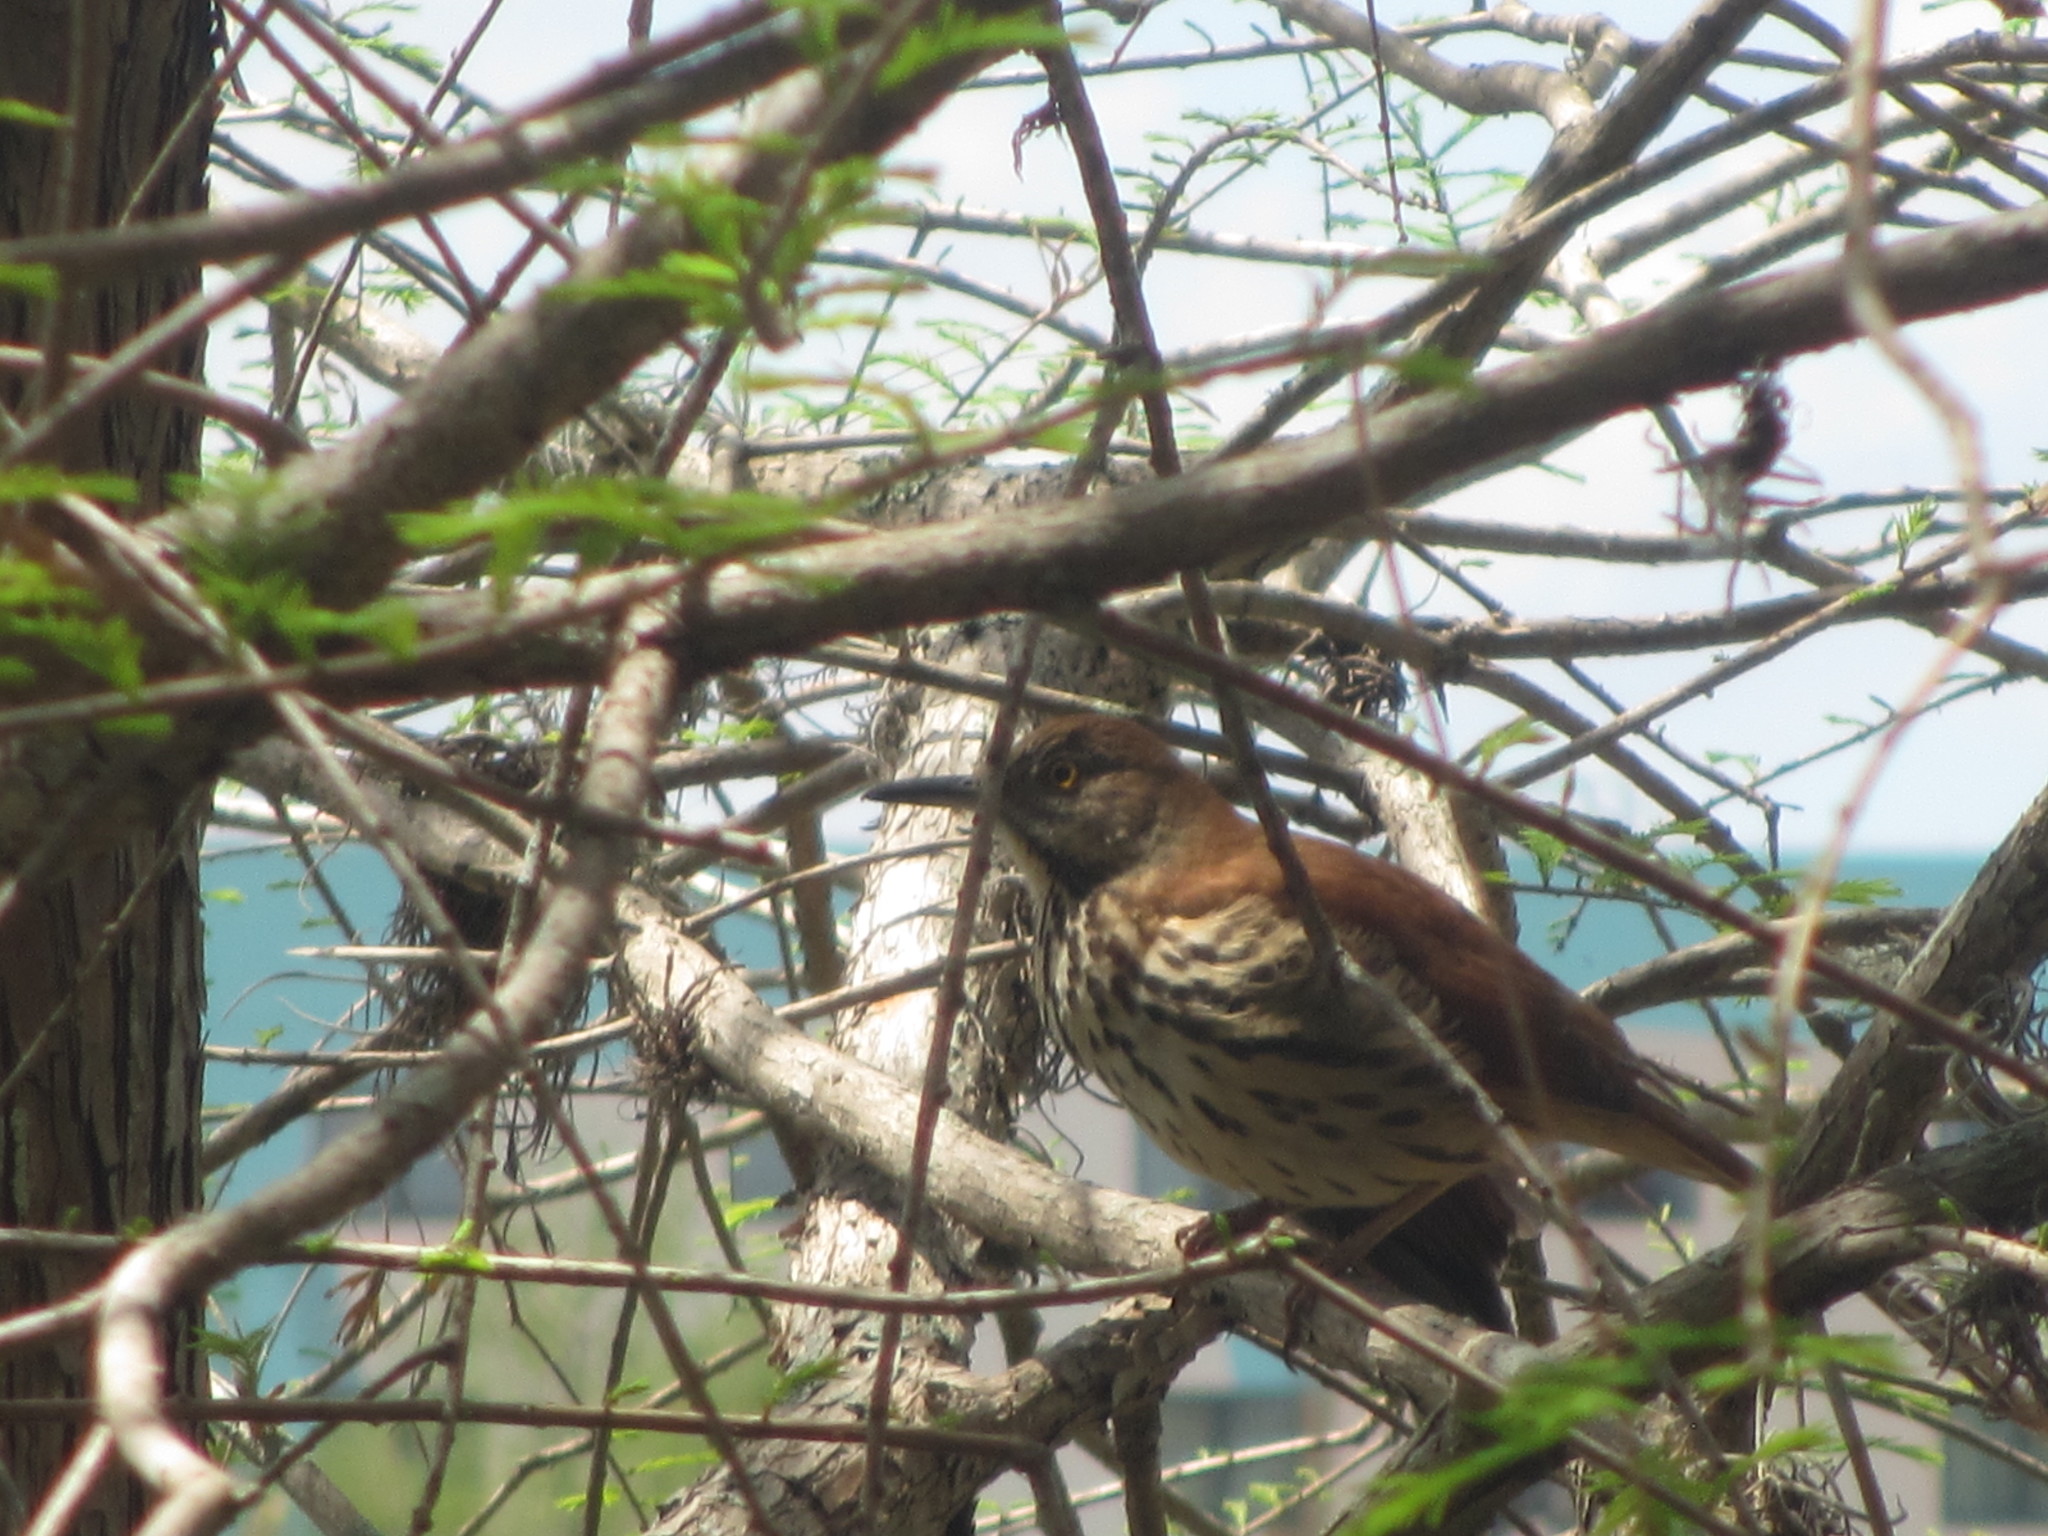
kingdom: Animalia
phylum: Chordata
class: Aves
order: Passeriformes
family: Mimidae
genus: Toxostoma
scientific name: Toxostoma rufum
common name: Brown thrasher
